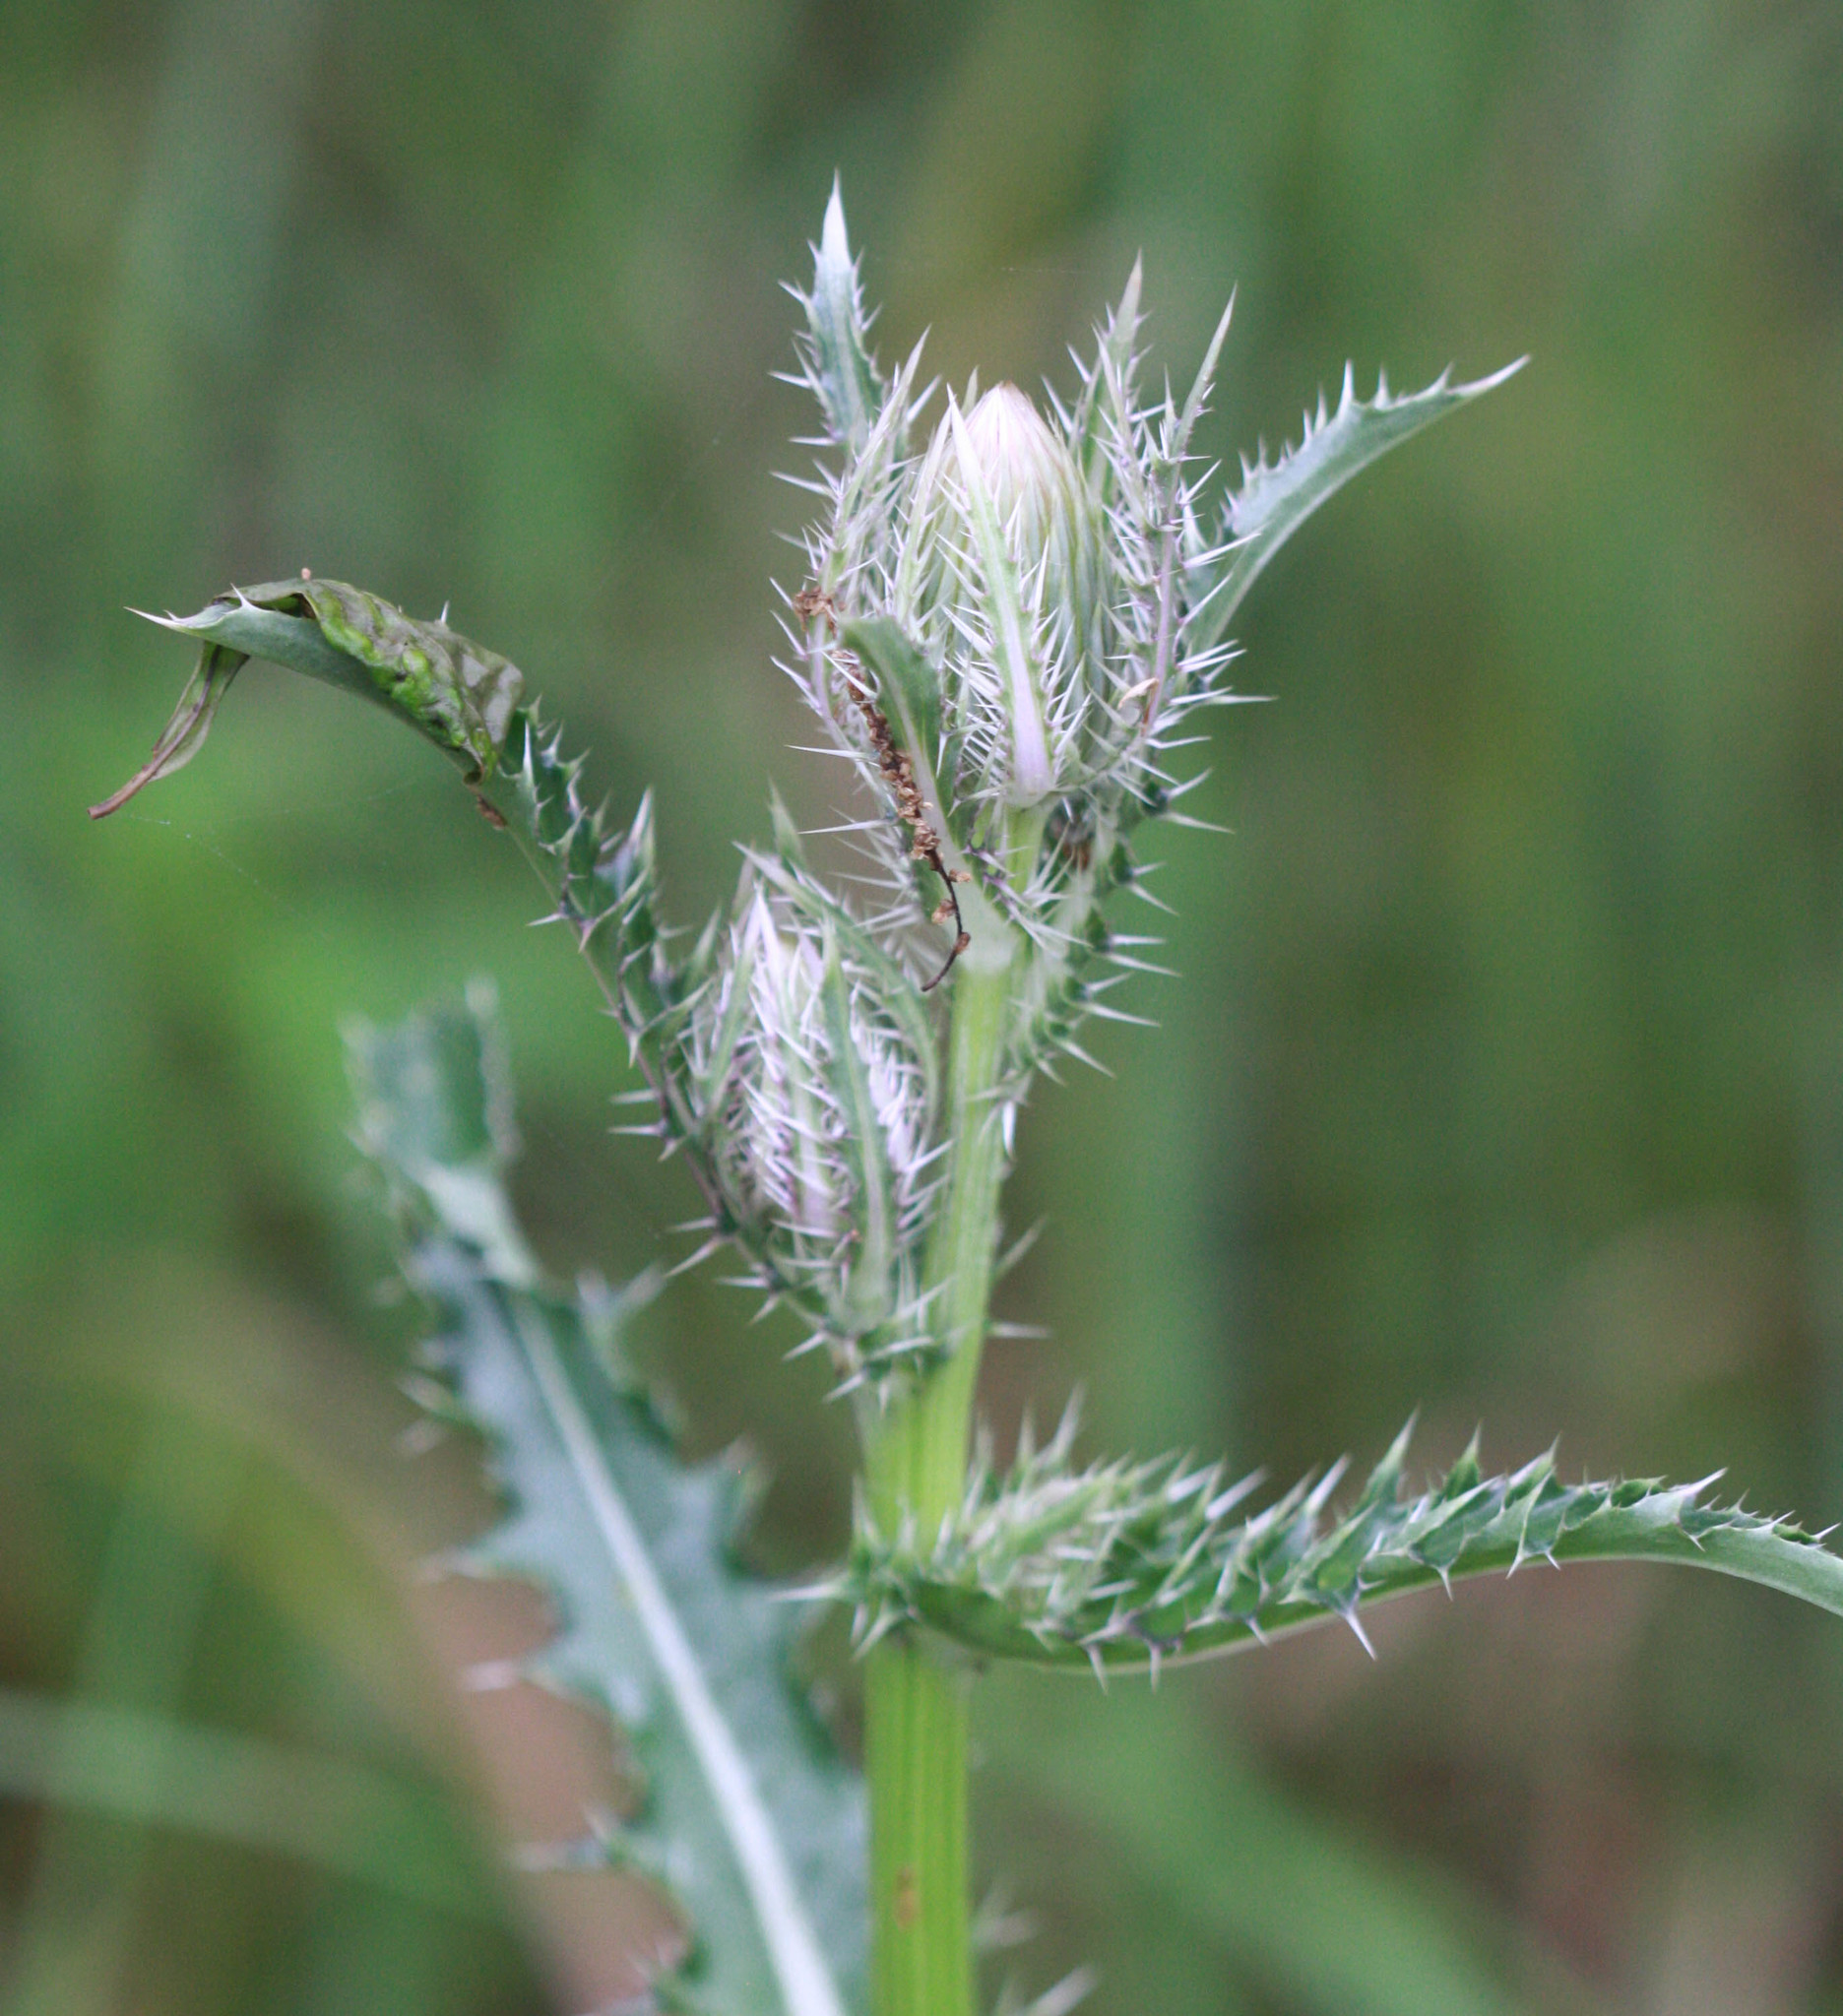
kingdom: Plantae
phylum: Tracheophyta
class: Magnoliopsida
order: Asterales
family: Asteraceae
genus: Cirsium
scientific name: Cirsium horridulum
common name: Bristly thistle
